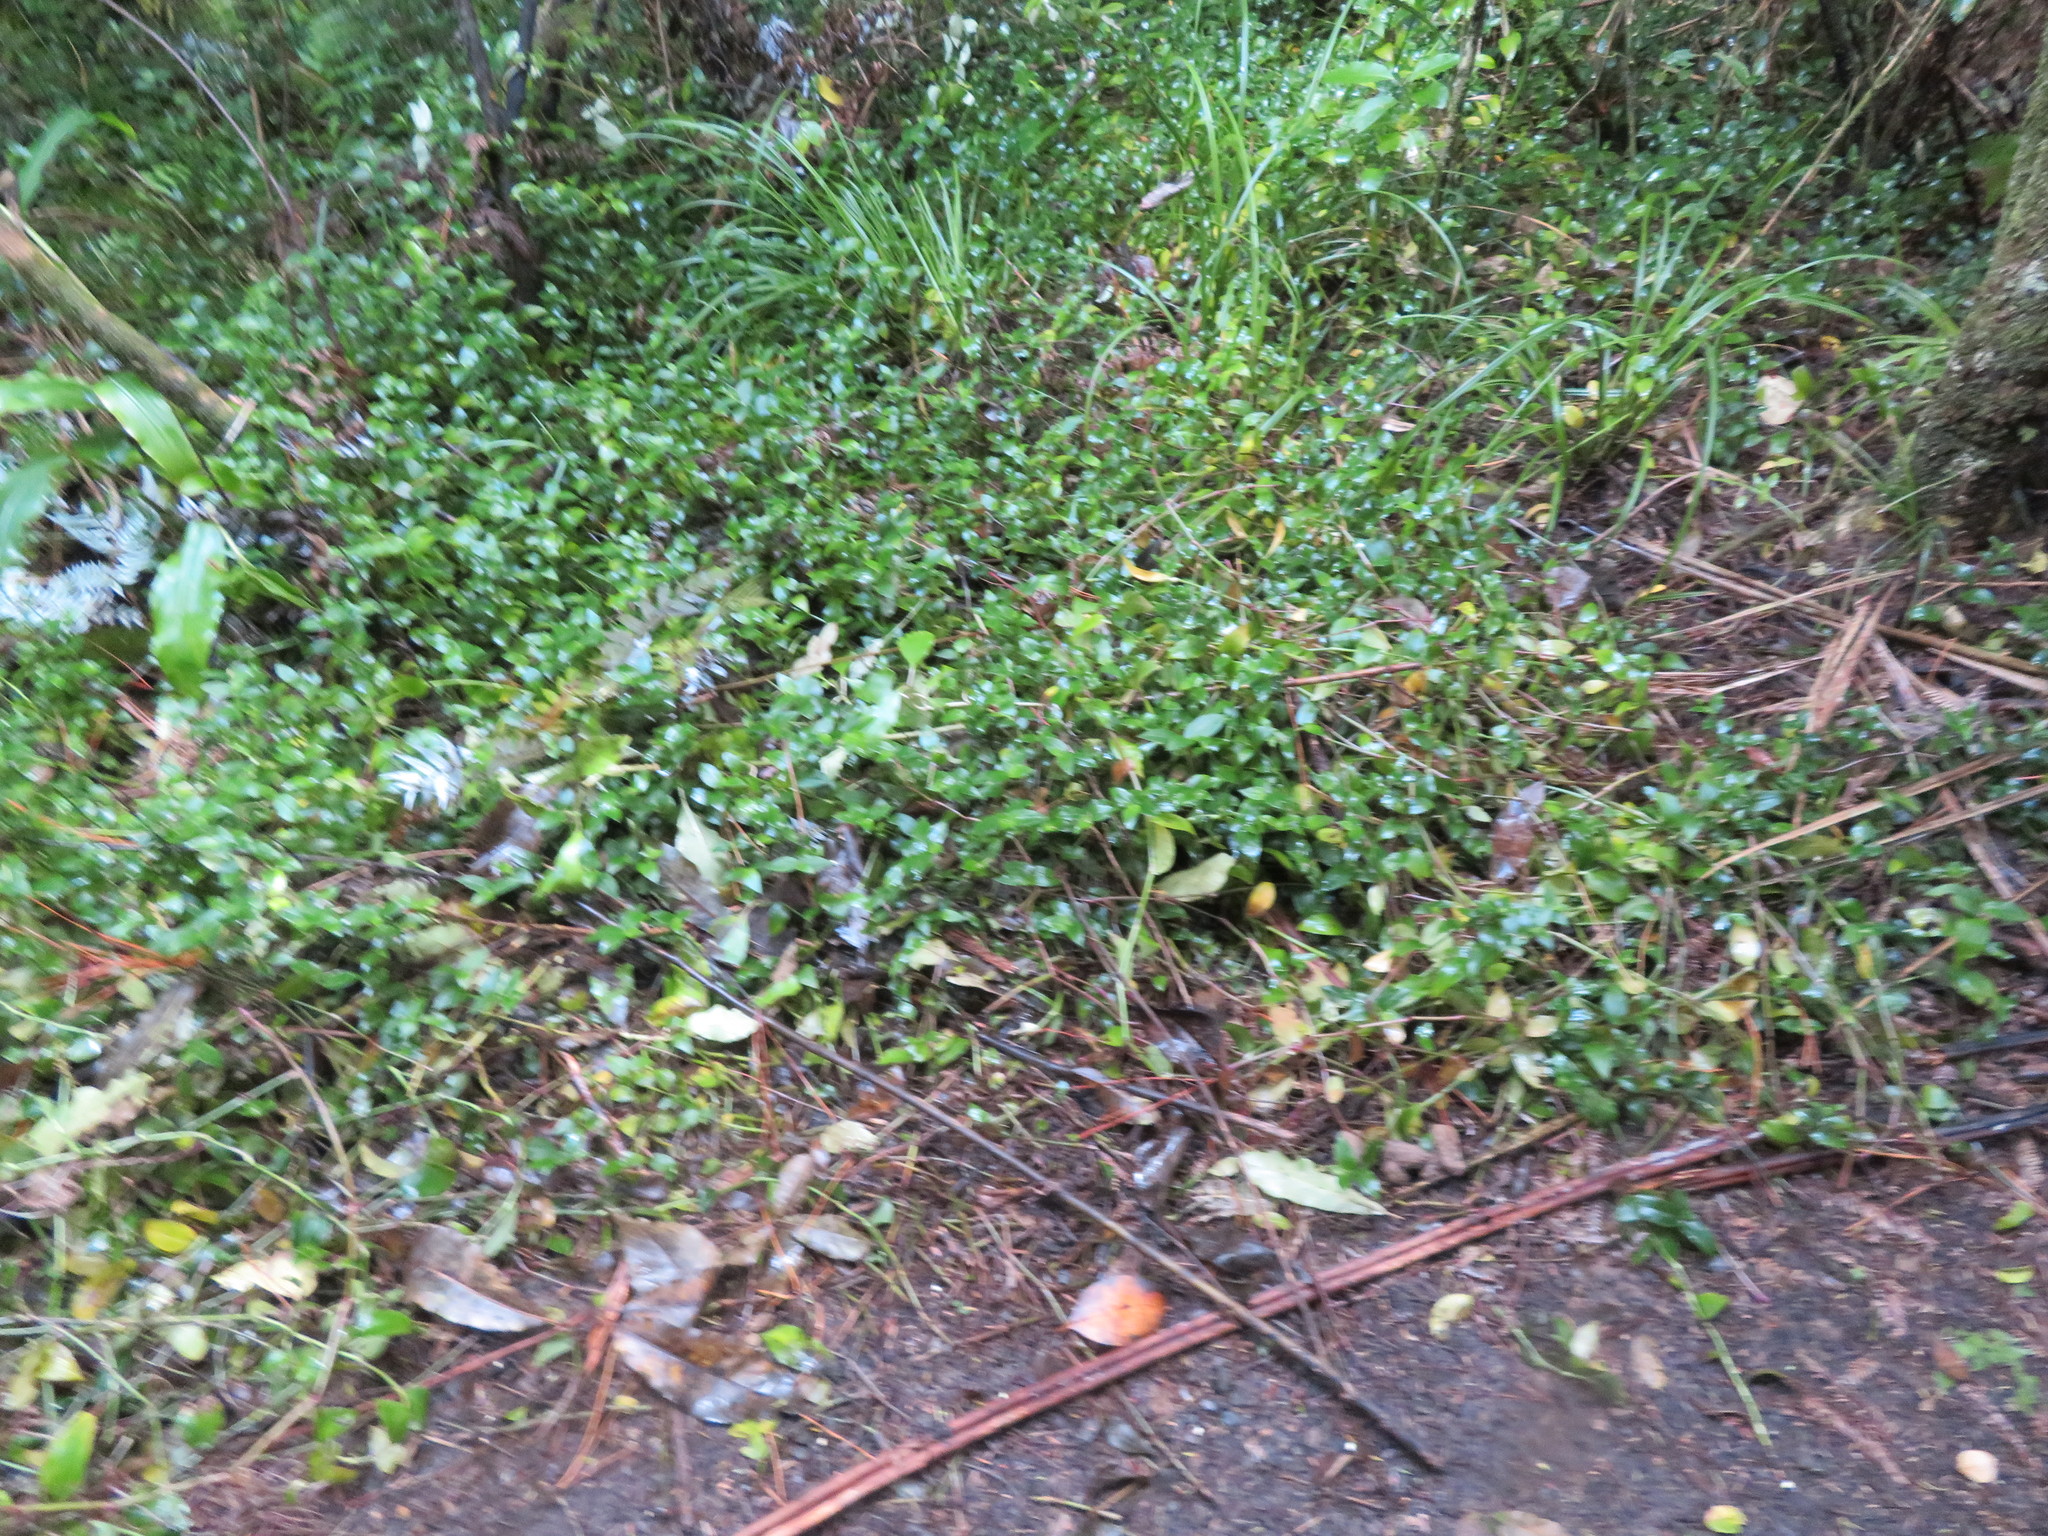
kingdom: Plantae
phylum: Tracheophyta
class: Liliopsida
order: Commelinales
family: Commelinaceae
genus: Tradescantia
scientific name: Tradescantia fluminensis
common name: Wandering-jew
